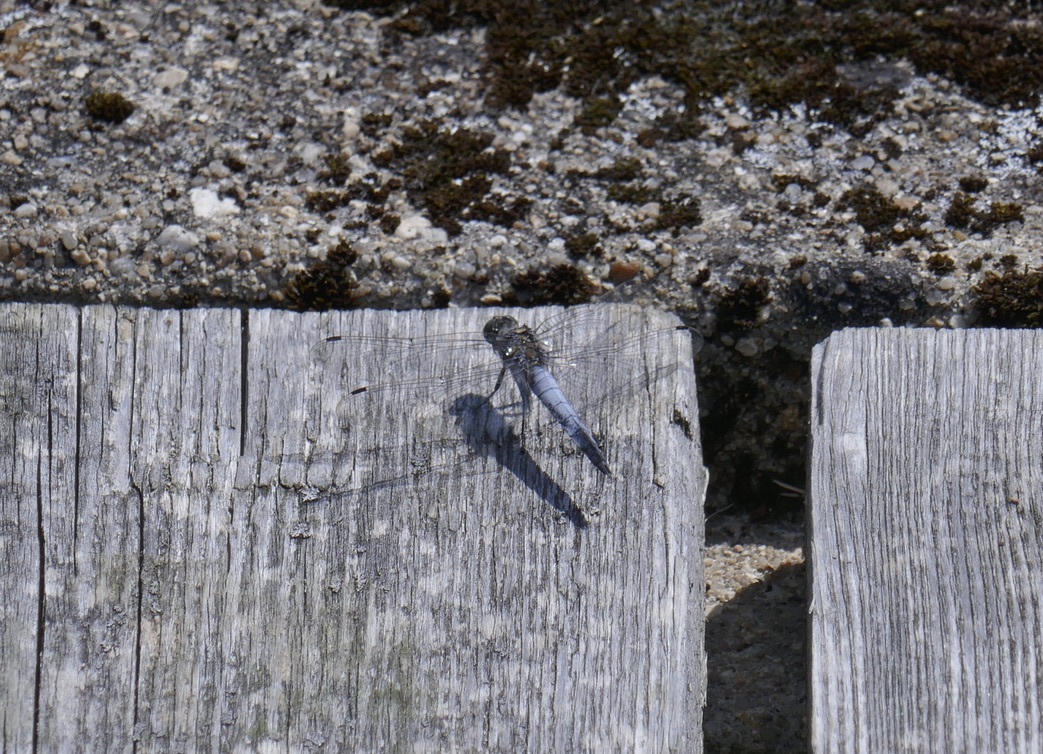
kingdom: Animalia
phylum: Arthropoda
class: Insecta
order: Odonata
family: Libellulidae
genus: Orthetrum
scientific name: Orthetrum cancellatum
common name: Black-tailed skimmer
